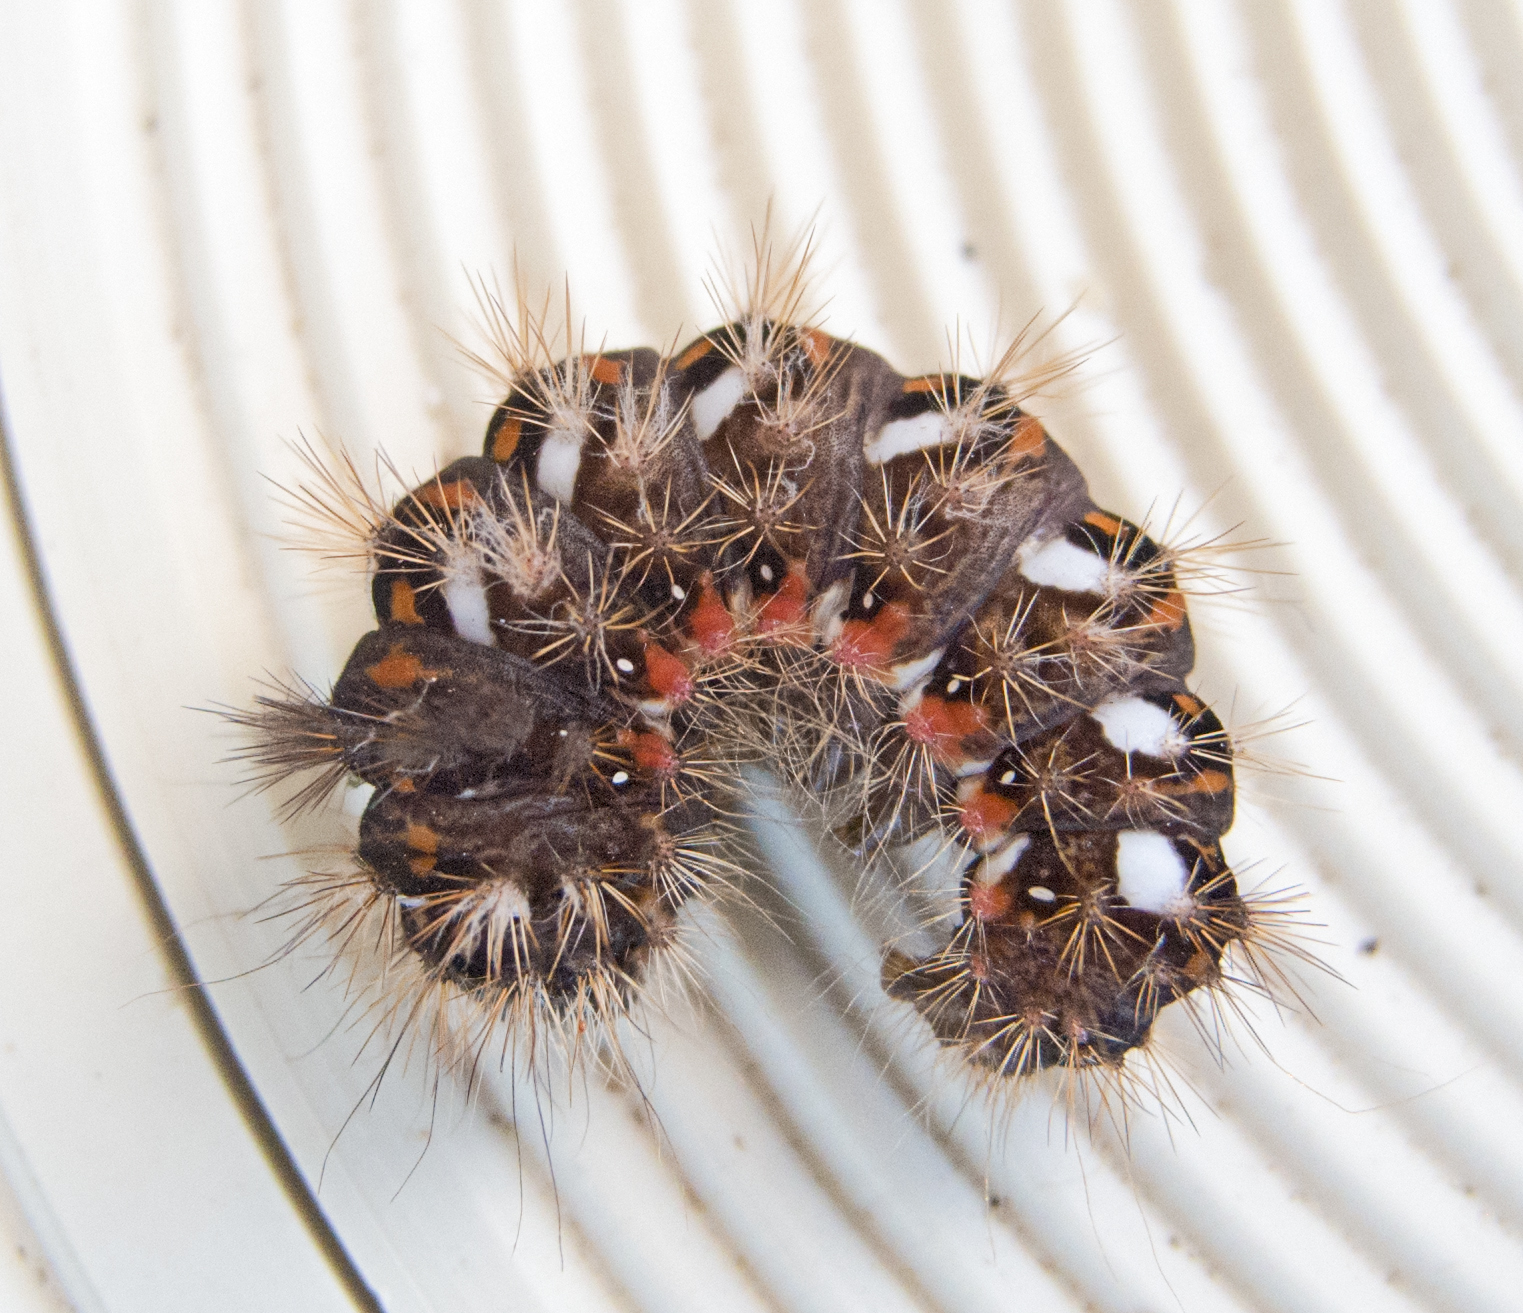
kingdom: Animalia
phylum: Arthropoda
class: Insecta
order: Lepidoptera
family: Noctuidae
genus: Acronicta
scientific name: Acronicta rumicis
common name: Knot grass
